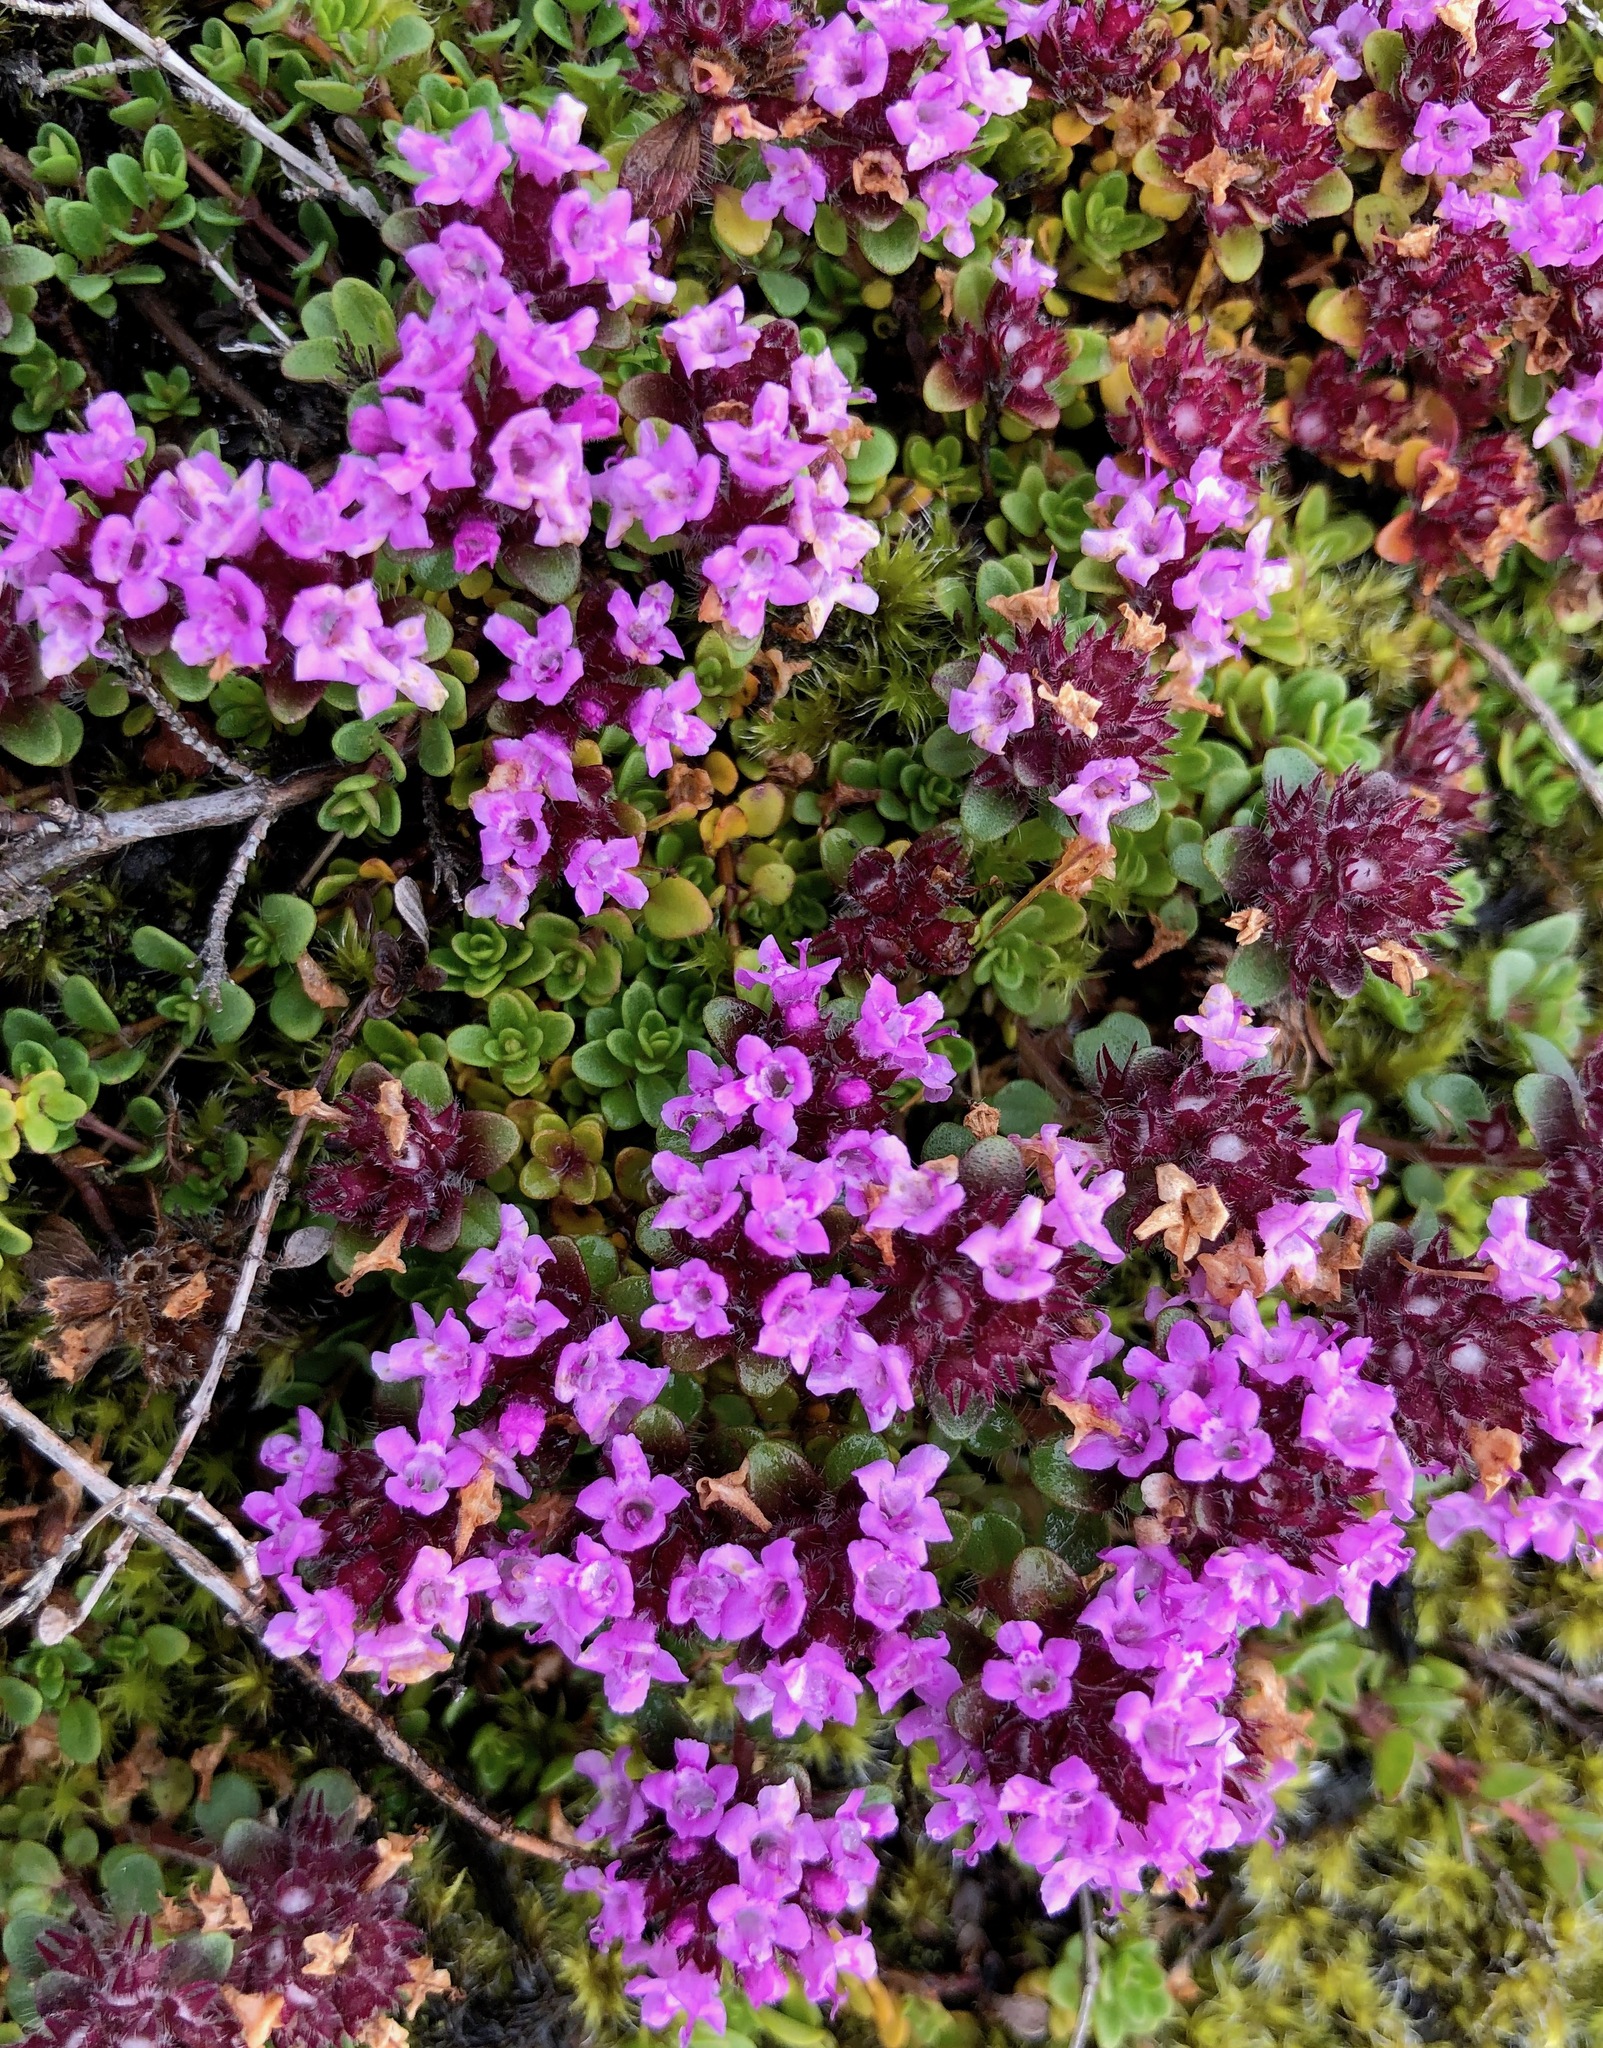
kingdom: Plantae
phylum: Tracheophyta
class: Magnoliopsida
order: Lamiales
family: Lamiaceae
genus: Thymus
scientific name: Thymus praecox
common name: Wild thyme
